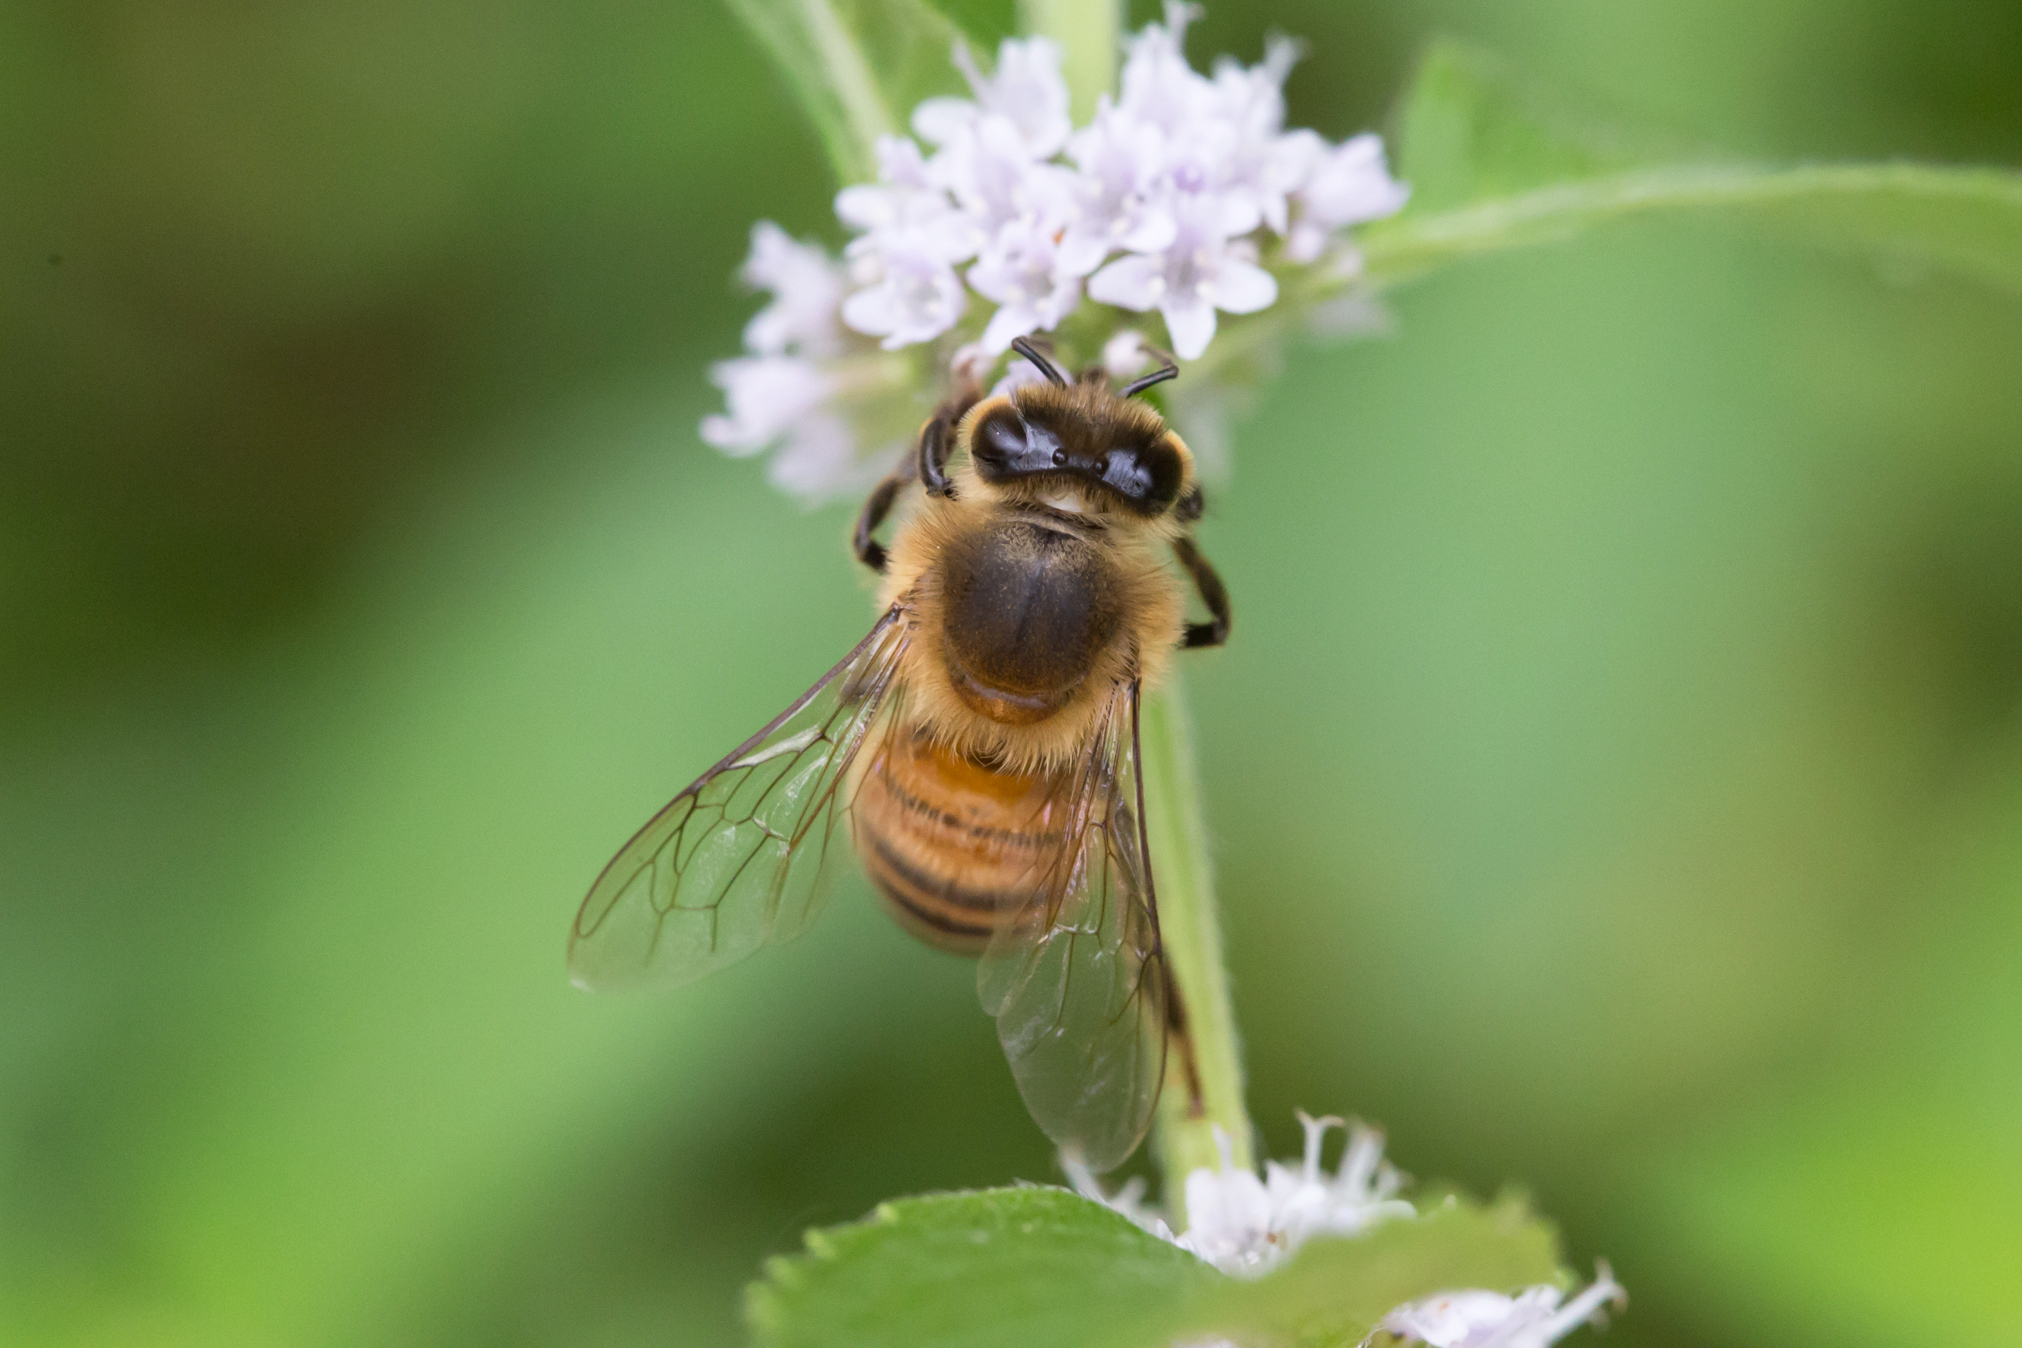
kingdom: Animalia
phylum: Arthropoda
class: Insecta
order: Hymenoptera
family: Apidae
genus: Apis
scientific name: Apis mellifera
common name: Honey bee
